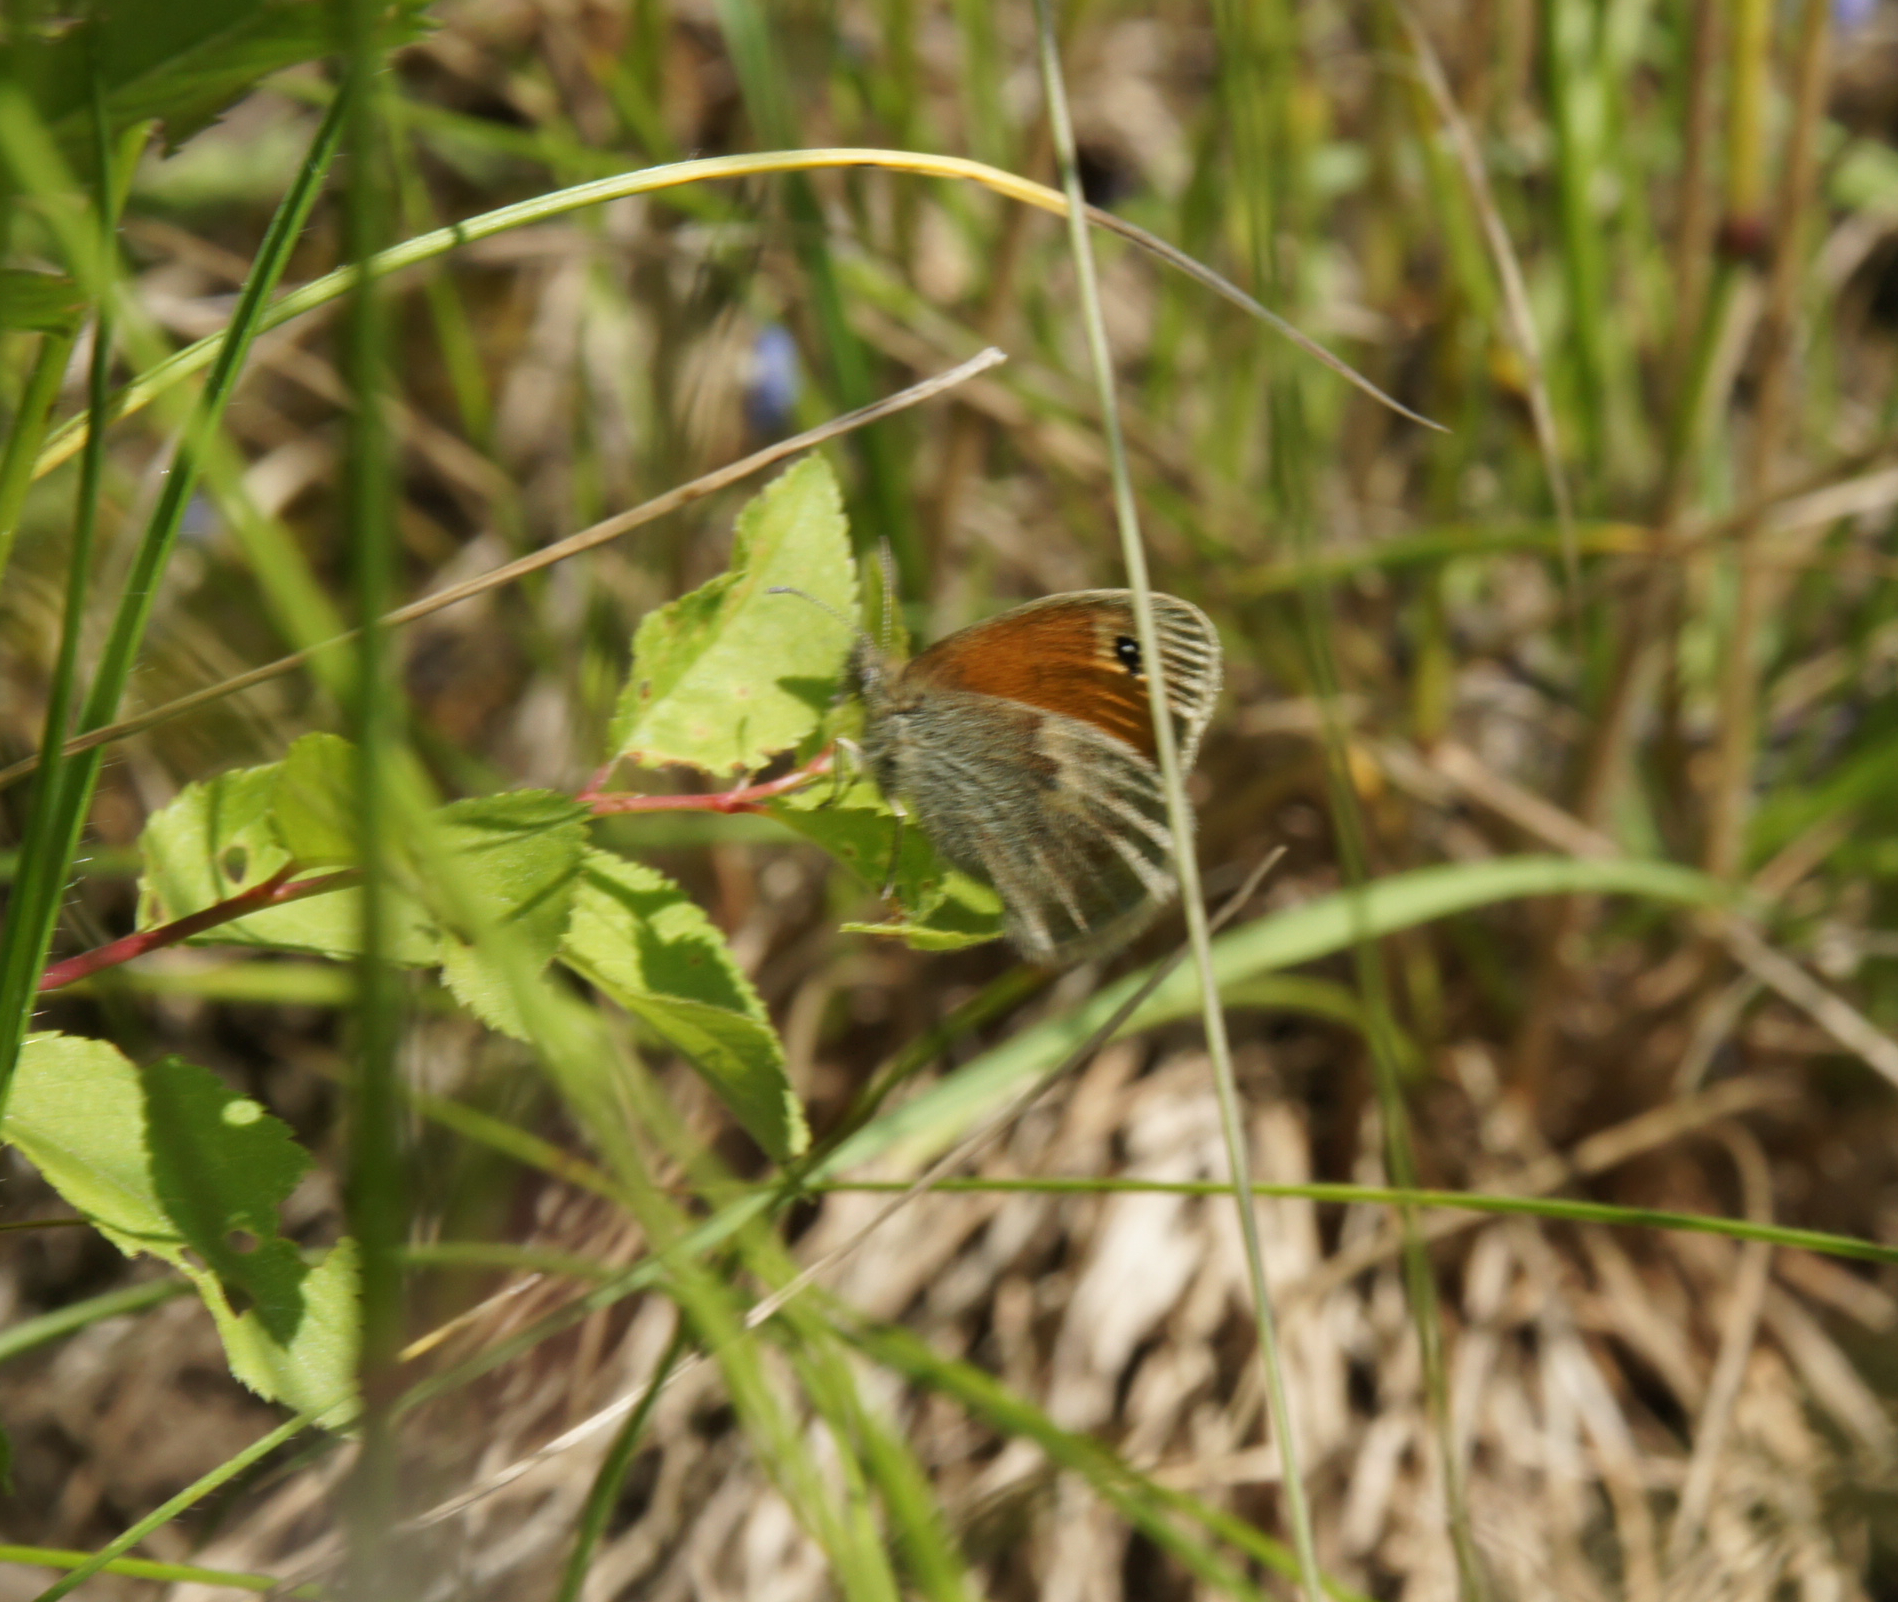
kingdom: Animalia
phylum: Arthropoda
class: Insecta
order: Lepidoptera
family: Nymphalidae
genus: Coenonympha
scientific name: Coenonympha pamphilus
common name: Small heath
